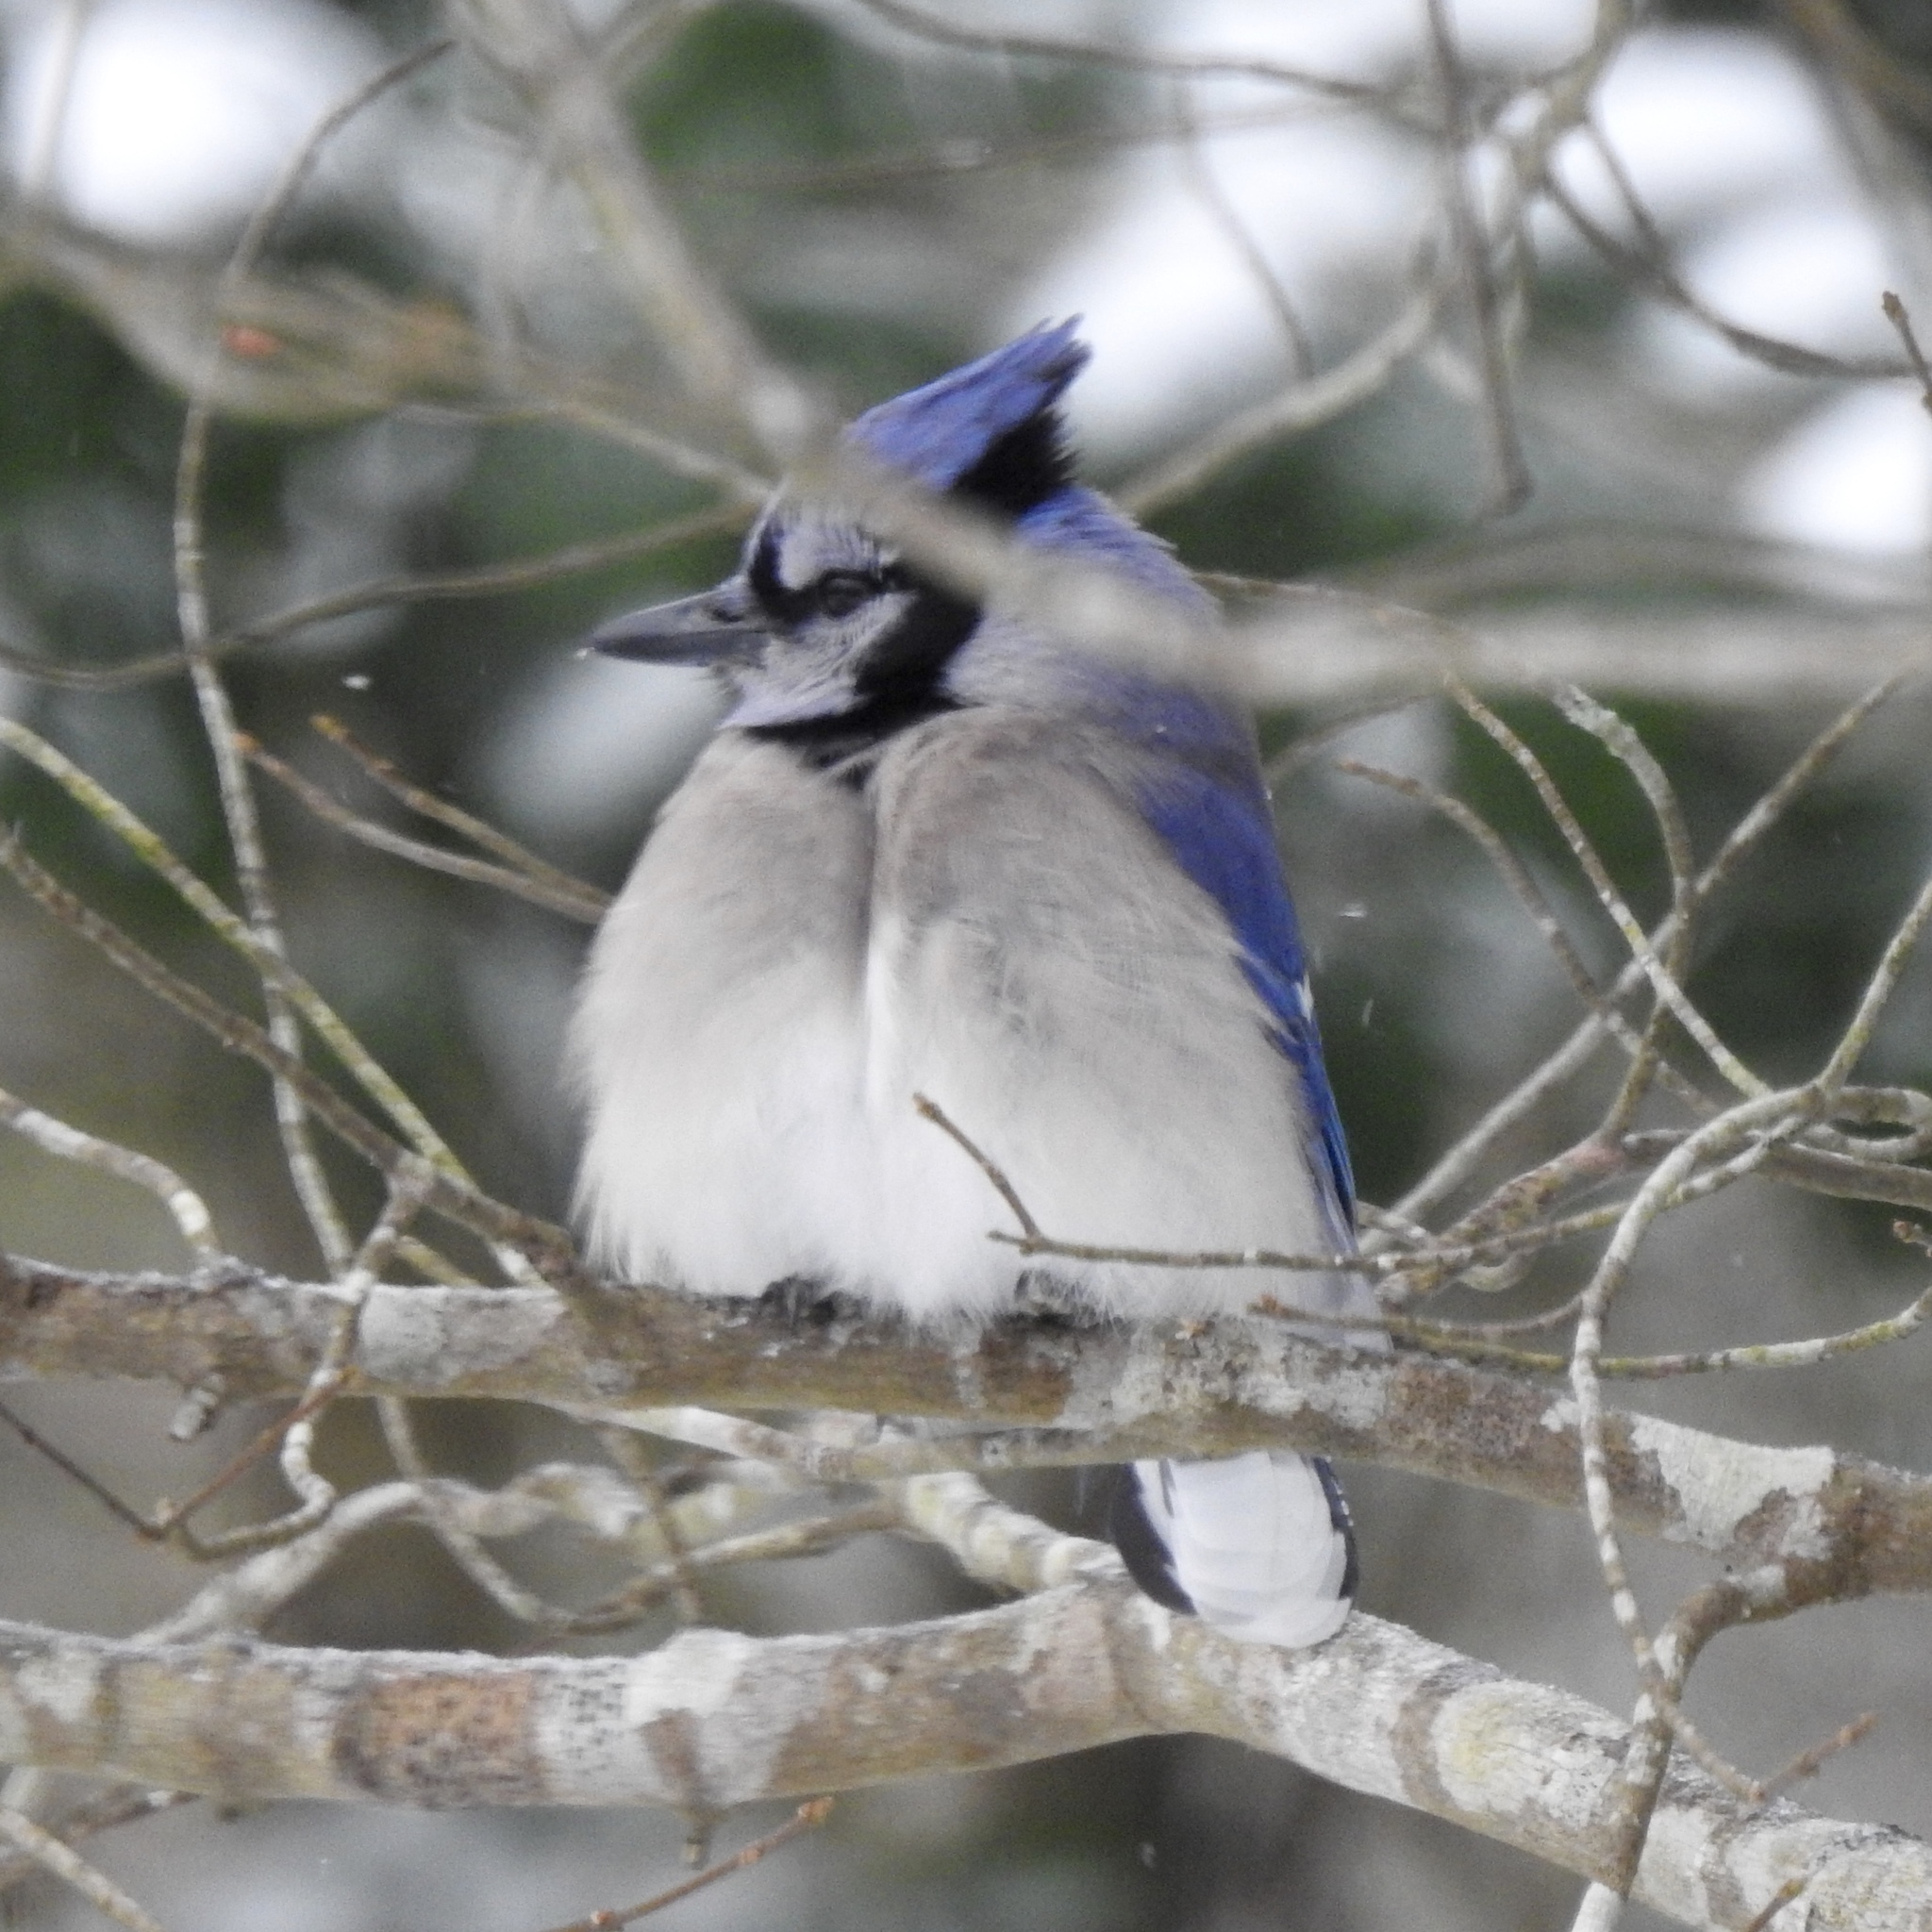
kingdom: Animalia
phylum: Chordata
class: Aves
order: Passeriformes
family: Corvidae
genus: Cyanocitta
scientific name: Cyanocitta cristata
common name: Blue jay
